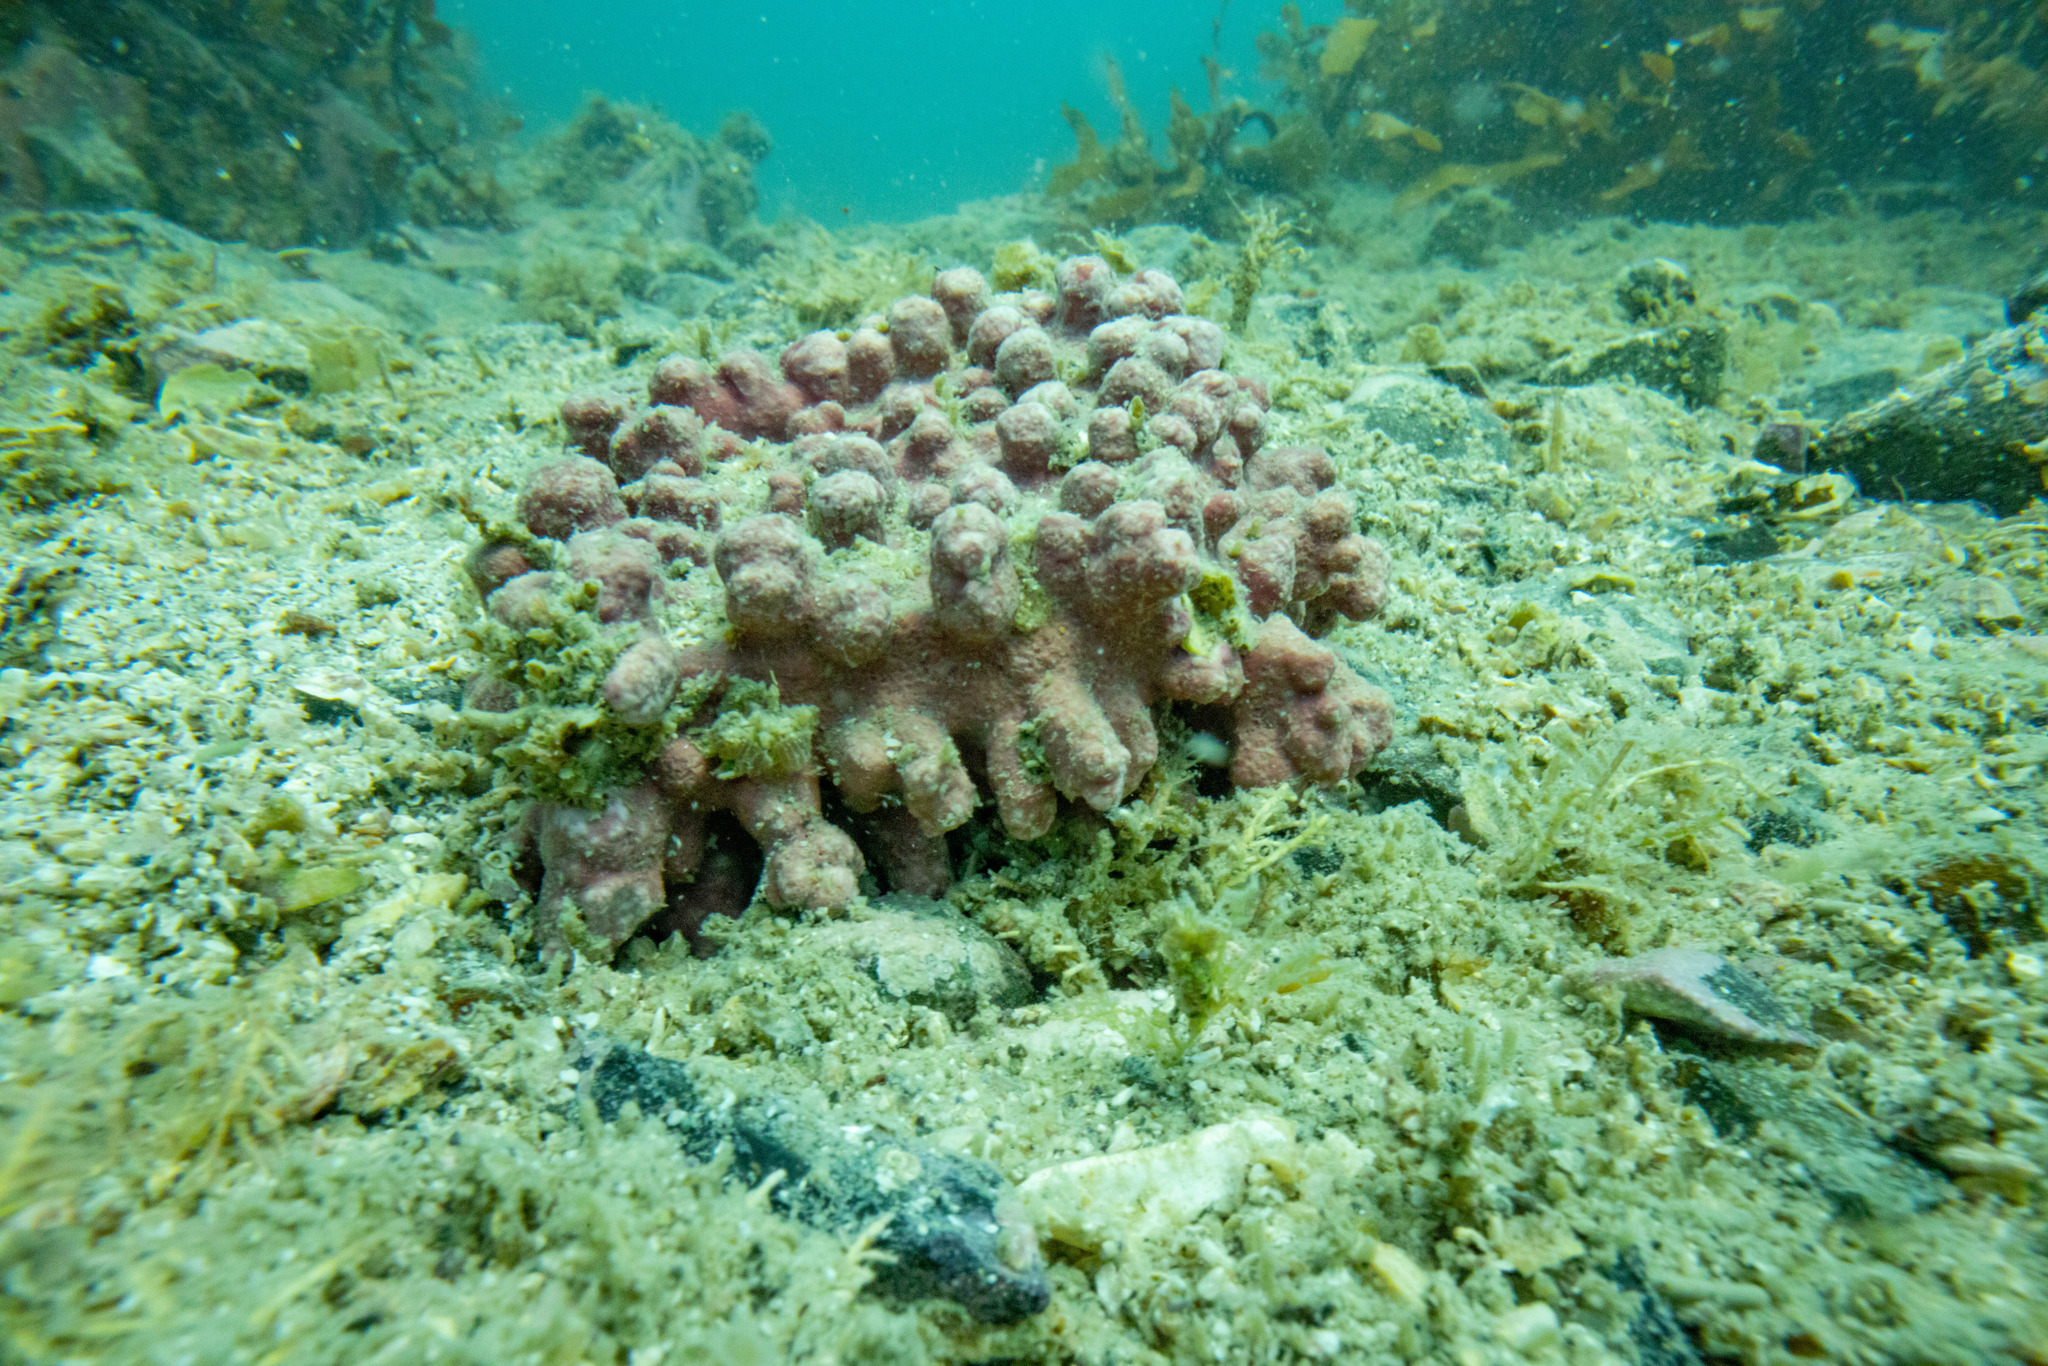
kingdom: Plantae
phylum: Rhodophyta
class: Florideophyceae
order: Corallinales
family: Hapalidiaceae
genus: Lithothamnion
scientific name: Lithothamnion crispatum
